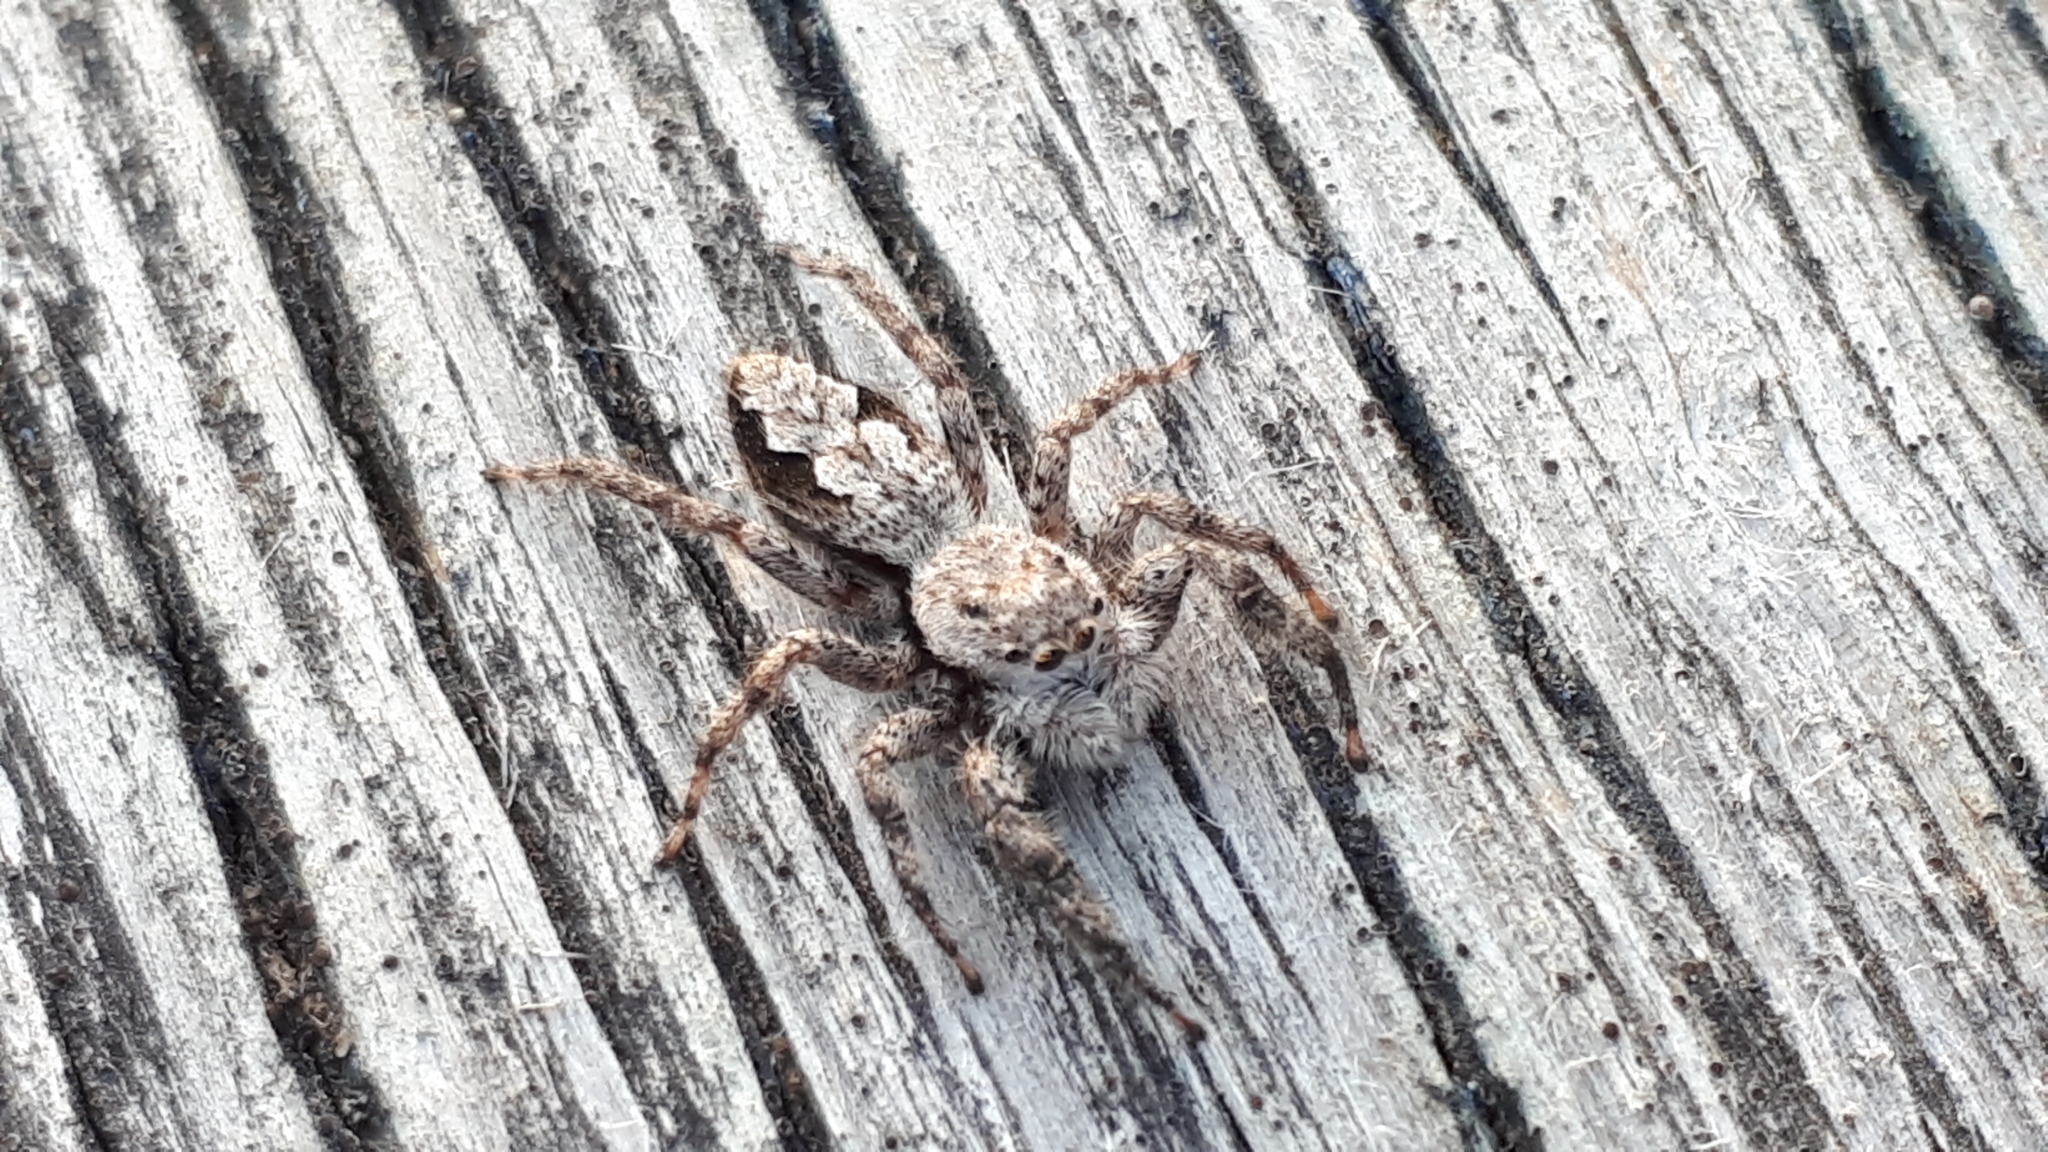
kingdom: Animalia
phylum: Arthropoda
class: Arachnida
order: Araneae
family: Salticidae
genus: Platycryptus
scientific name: Platycryptus undatus
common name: Tan jumping spider
